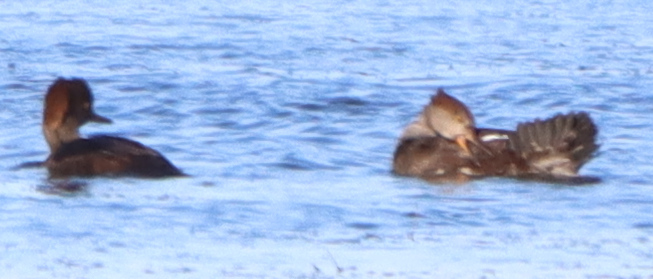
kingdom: Animalia
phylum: Chordata
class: Aves
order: Anseriformes
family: Anatidae
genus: Lophodytes
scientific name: Lophodytes cucullatus
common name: Hooded merganser
